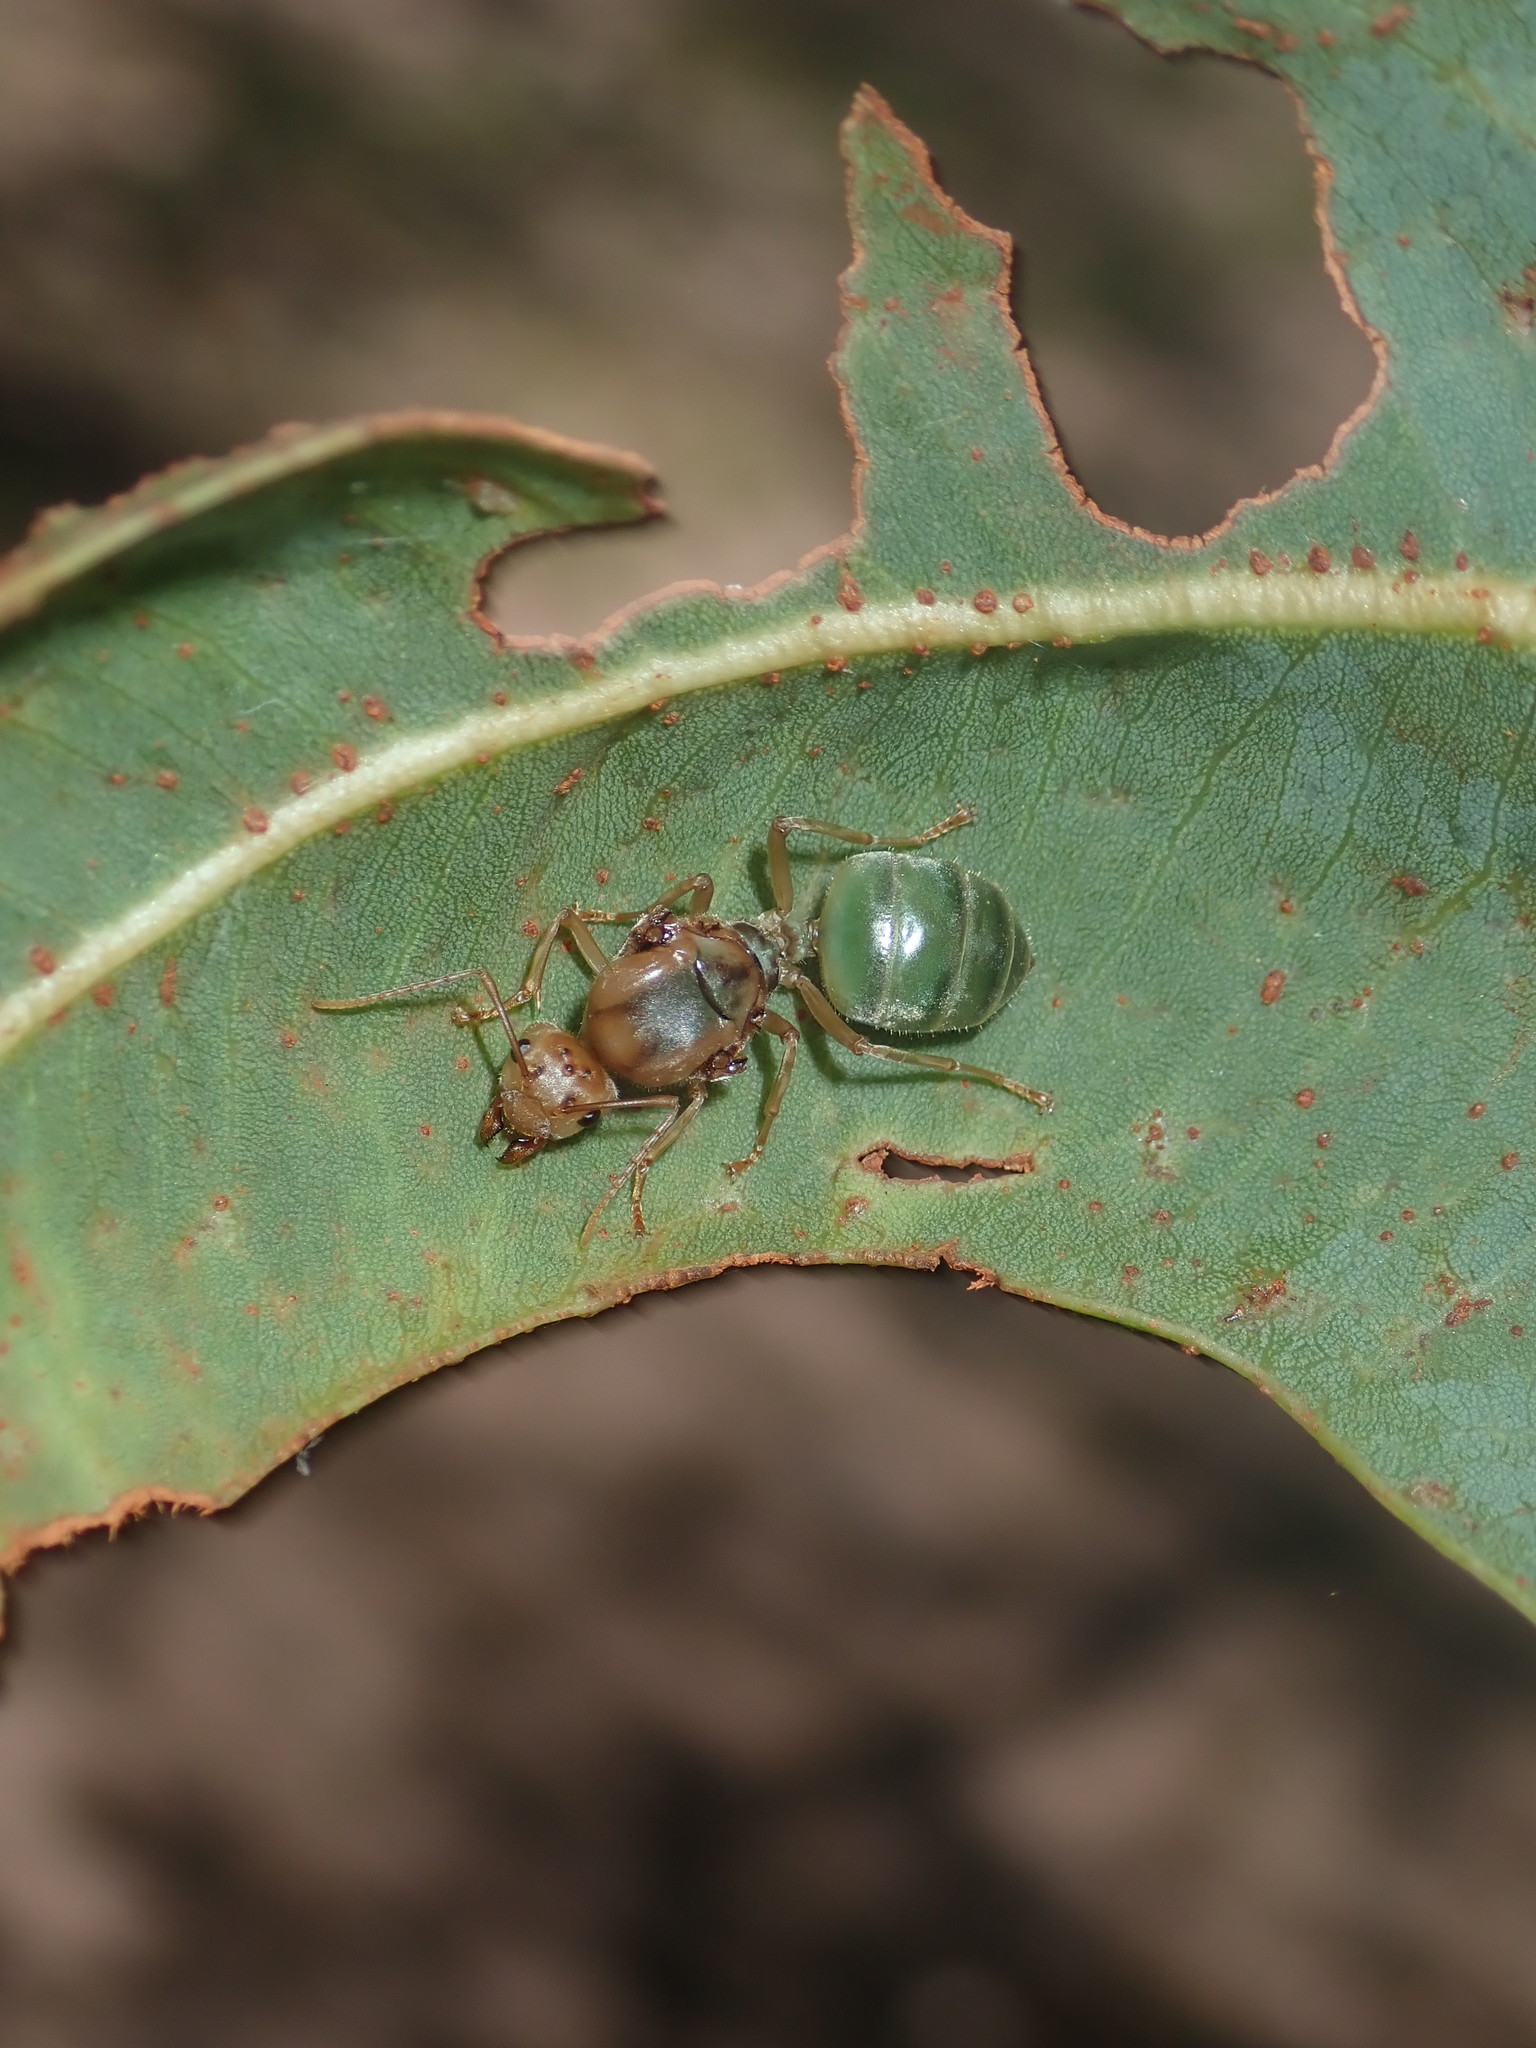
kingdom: Animalia
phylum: Arthropoda
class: Insecta
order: Hymenoptera
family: Formicidae
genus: Oecophylla
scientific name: Oecophylla smaragdina
